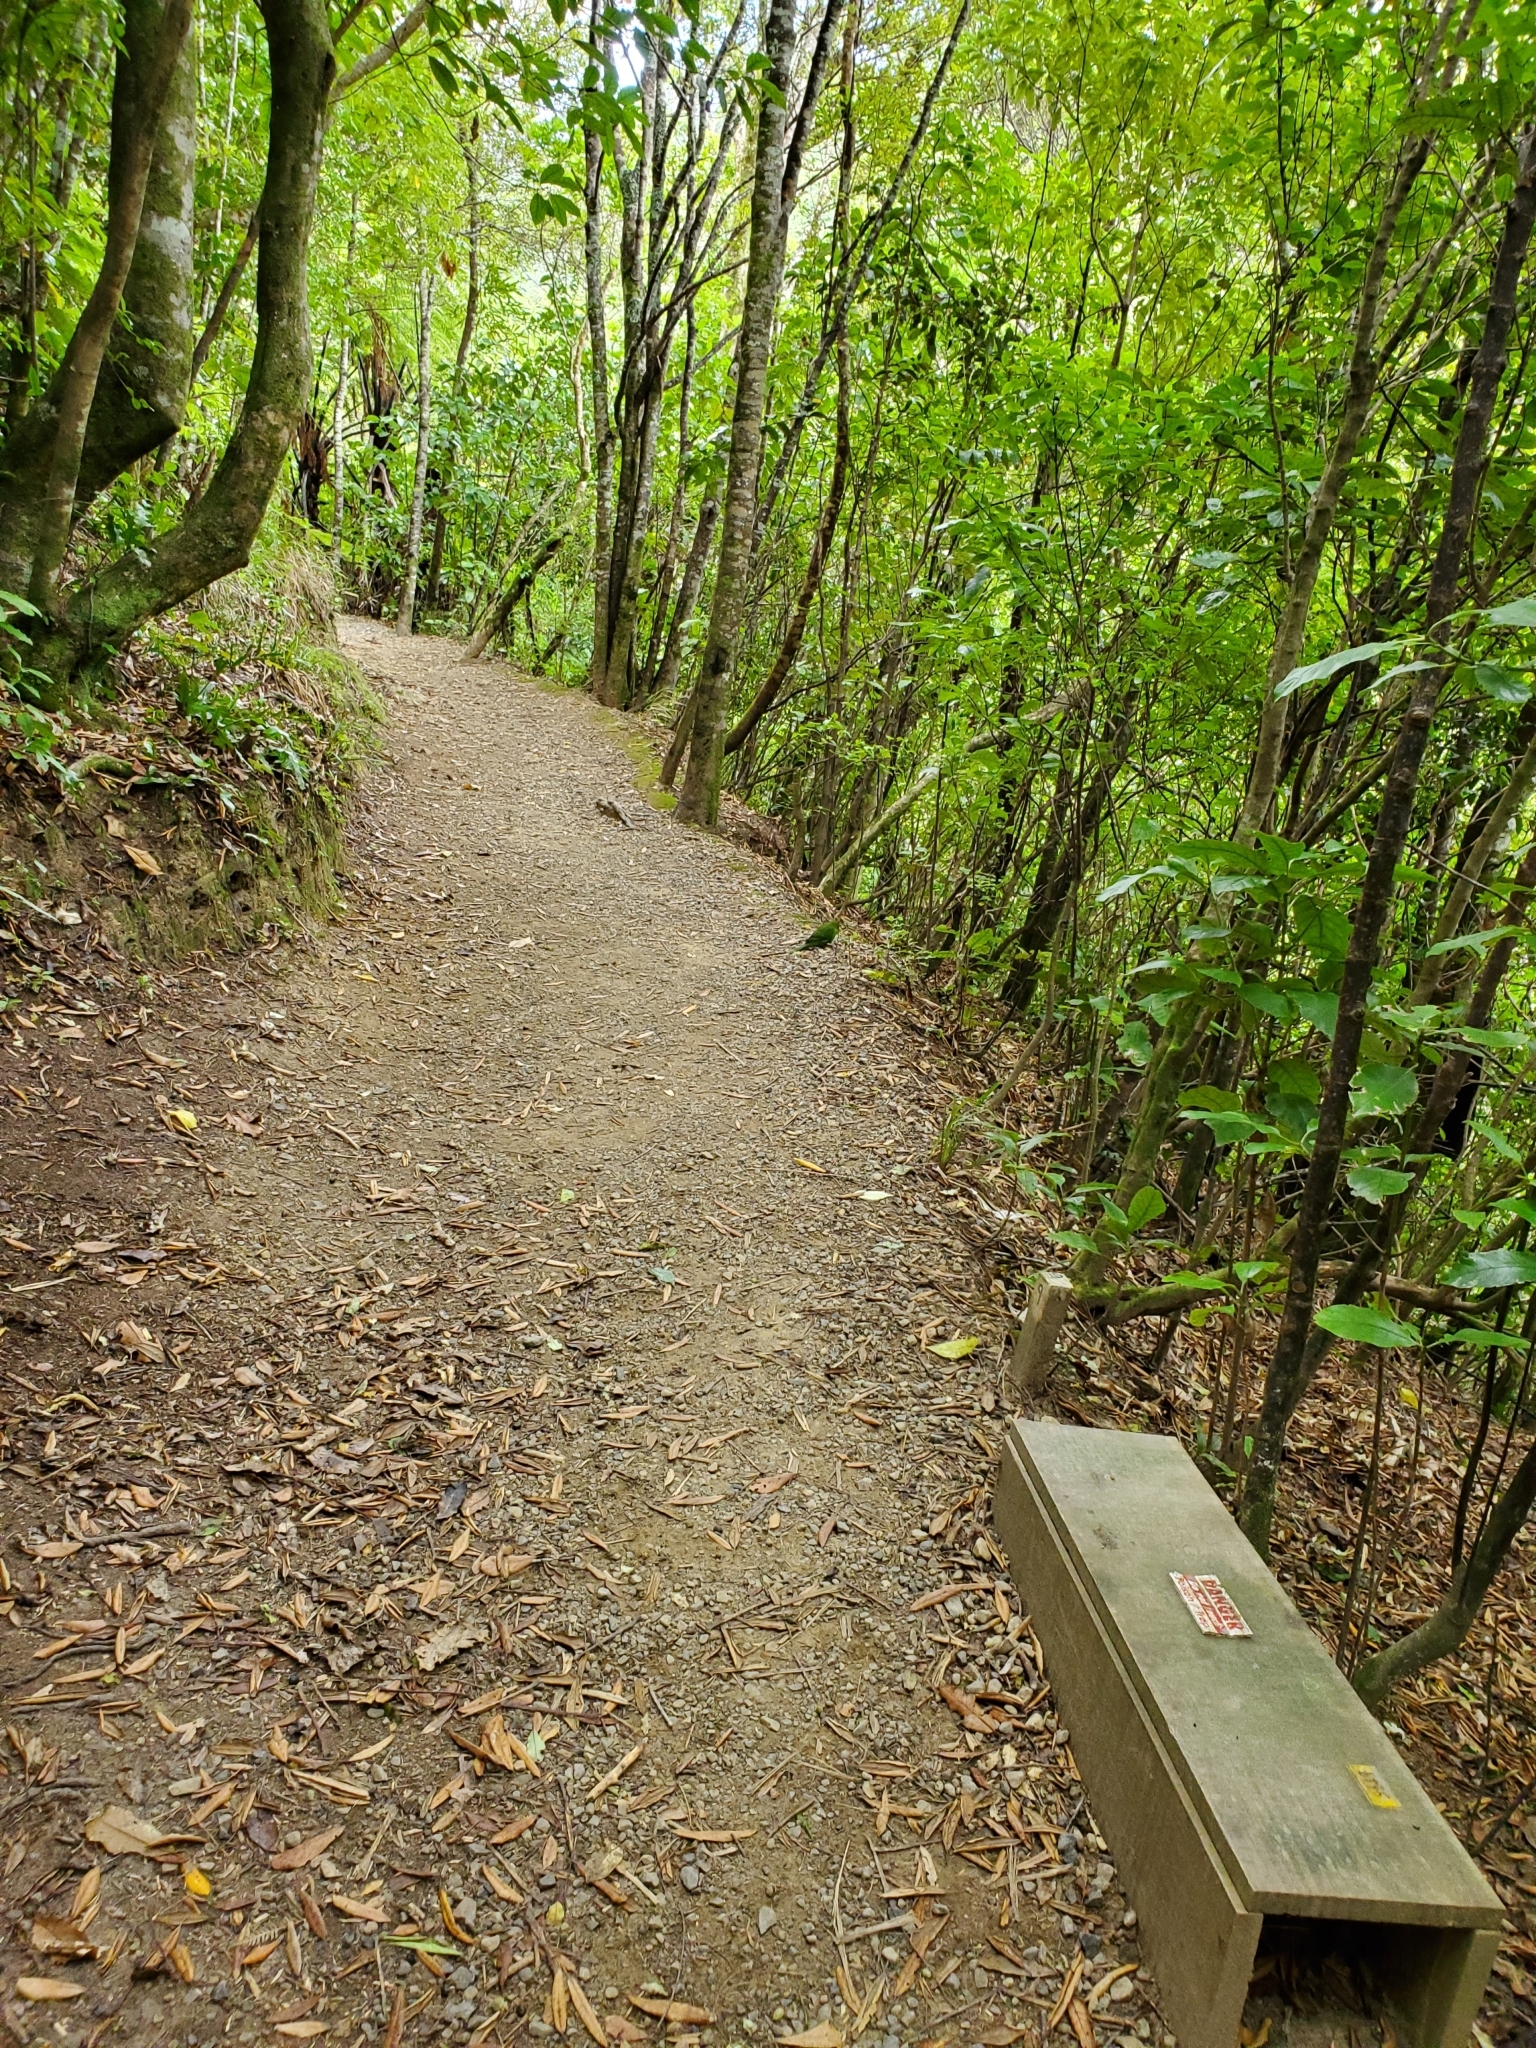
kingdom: Animalia
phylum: Chordata
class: Aves
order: Psittaciformes
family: Psittacidae
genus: Cyanoramphus
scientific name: Cyanoramphus novaezelandiae
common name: Red-fronted parakeet
